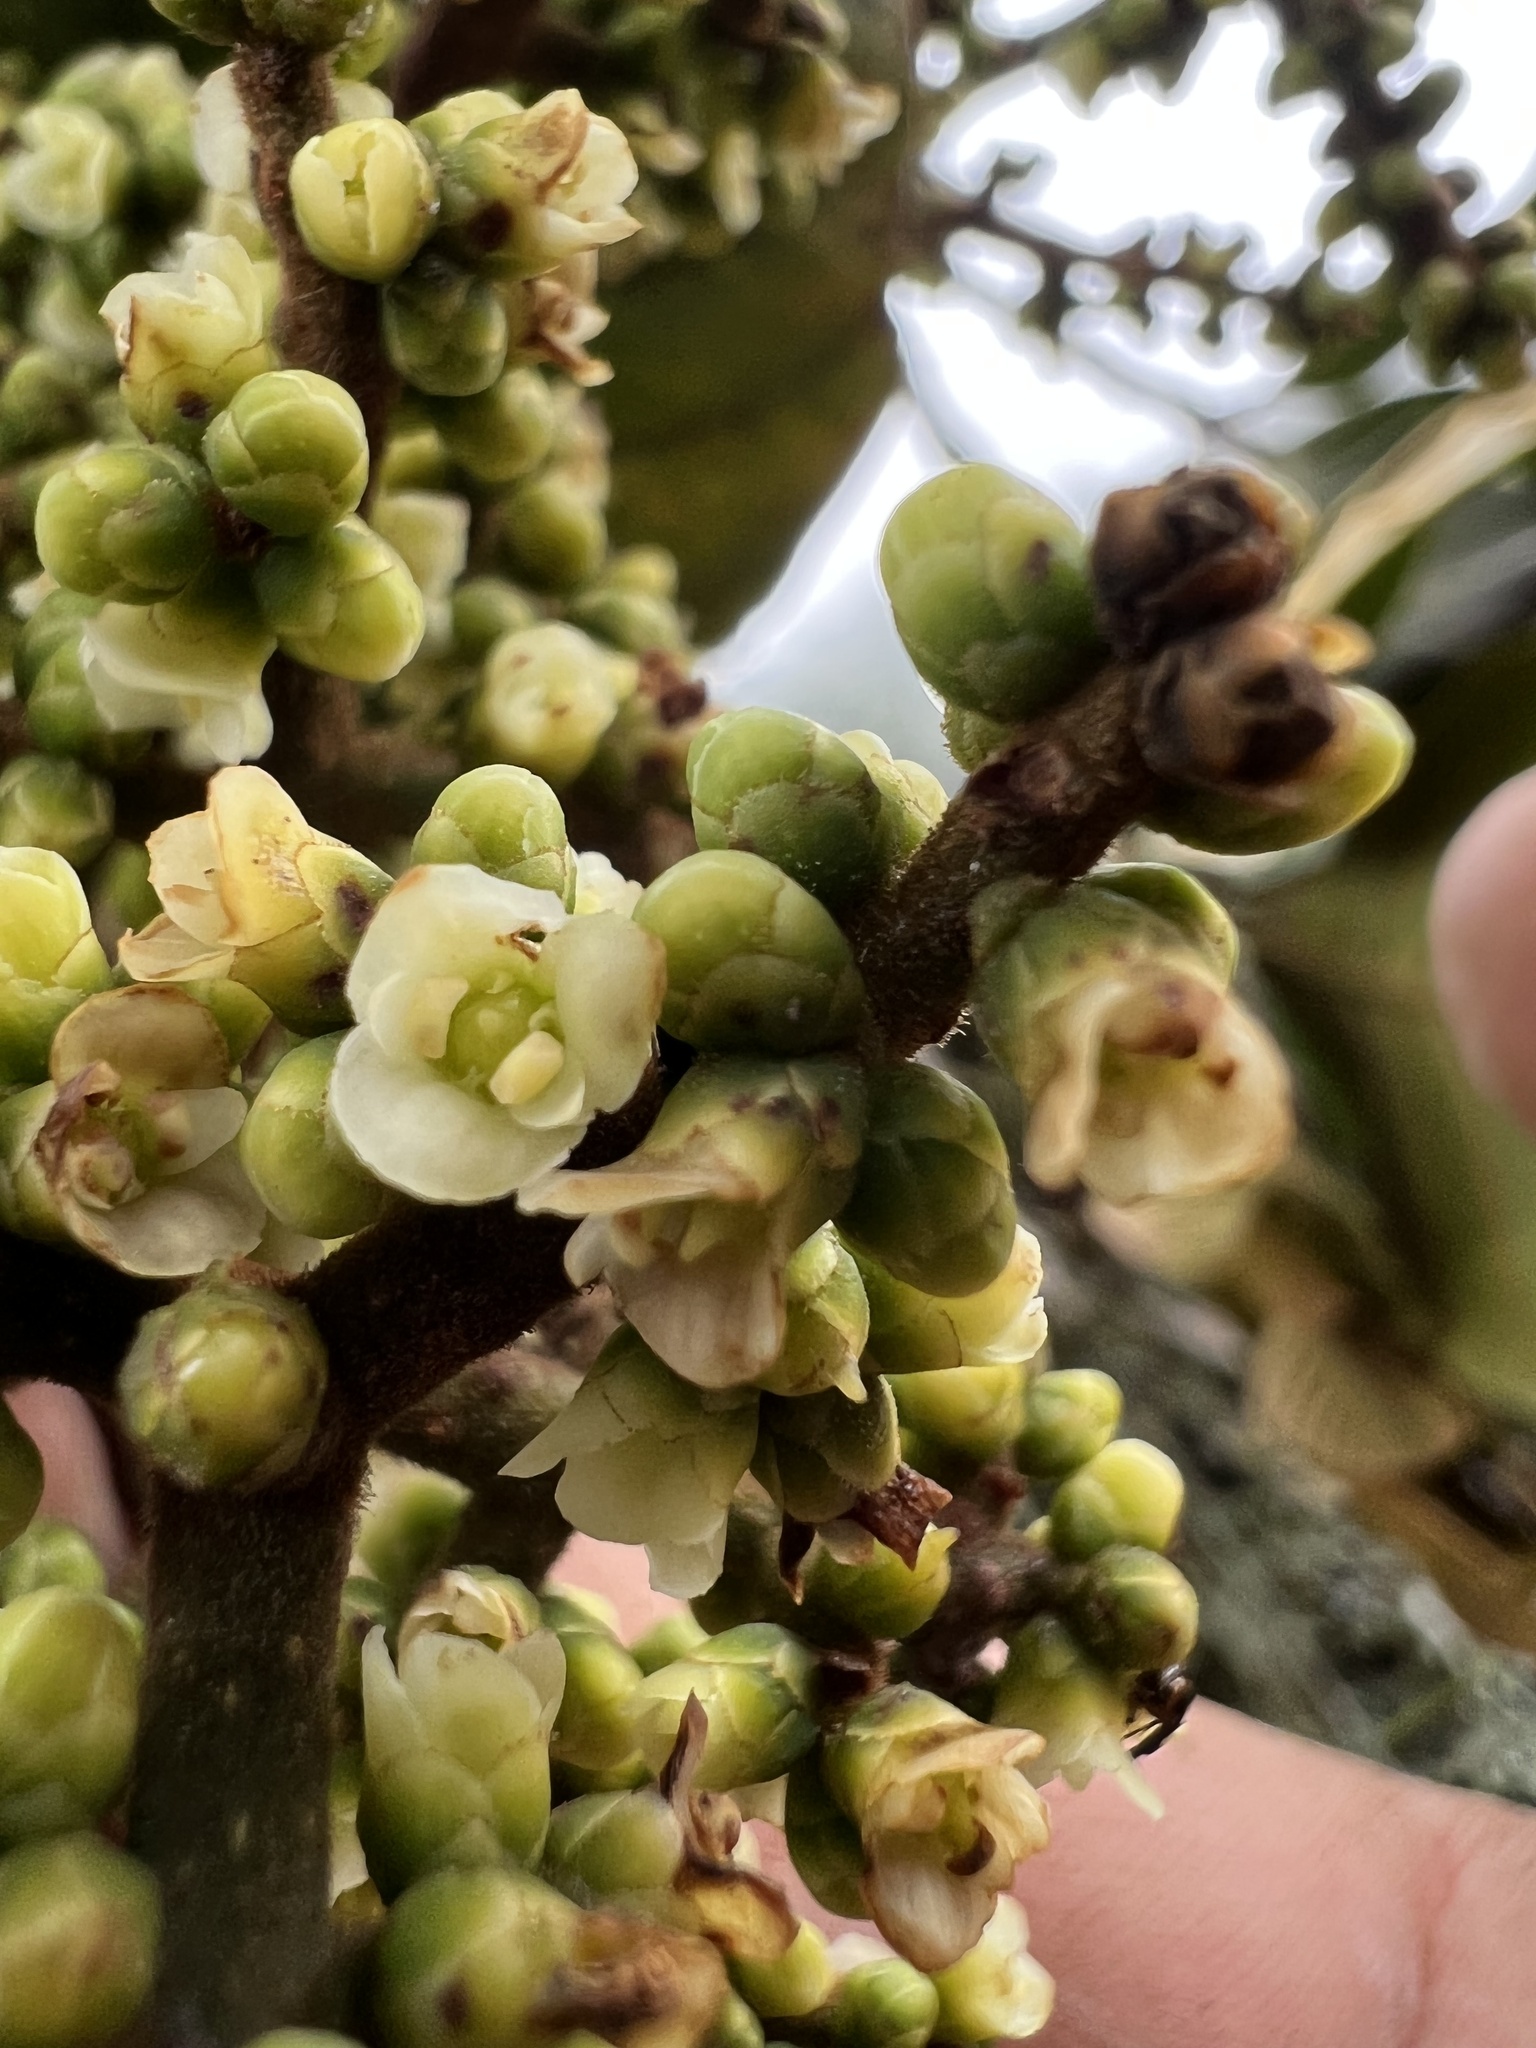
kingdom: Plantae
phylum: Tracheophyta
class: Magnoliopsida
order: Proteales
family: Sabiaceae
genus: Meliosma
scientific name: Meliosma frondosa
